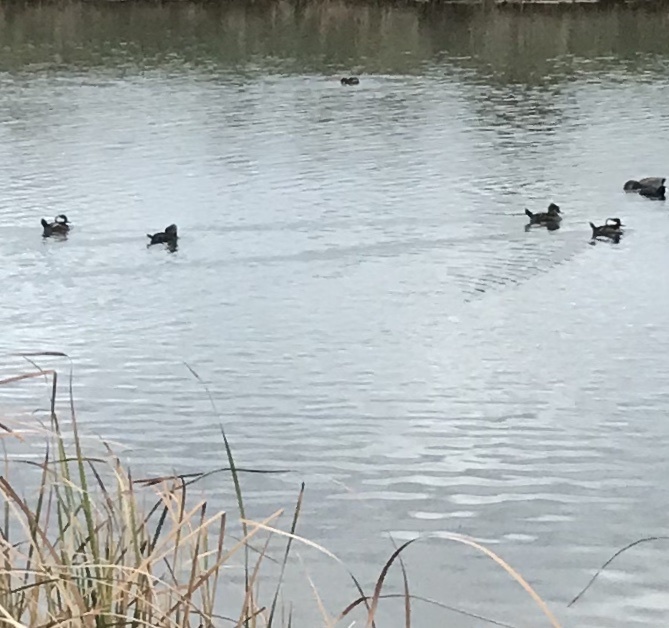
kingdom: Animalia
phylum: Chordata
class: Aves
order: Anseriformes
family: Anatidae
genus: Lophodytes
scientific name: Lophodytes cucullatus
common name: Hooded merganser
